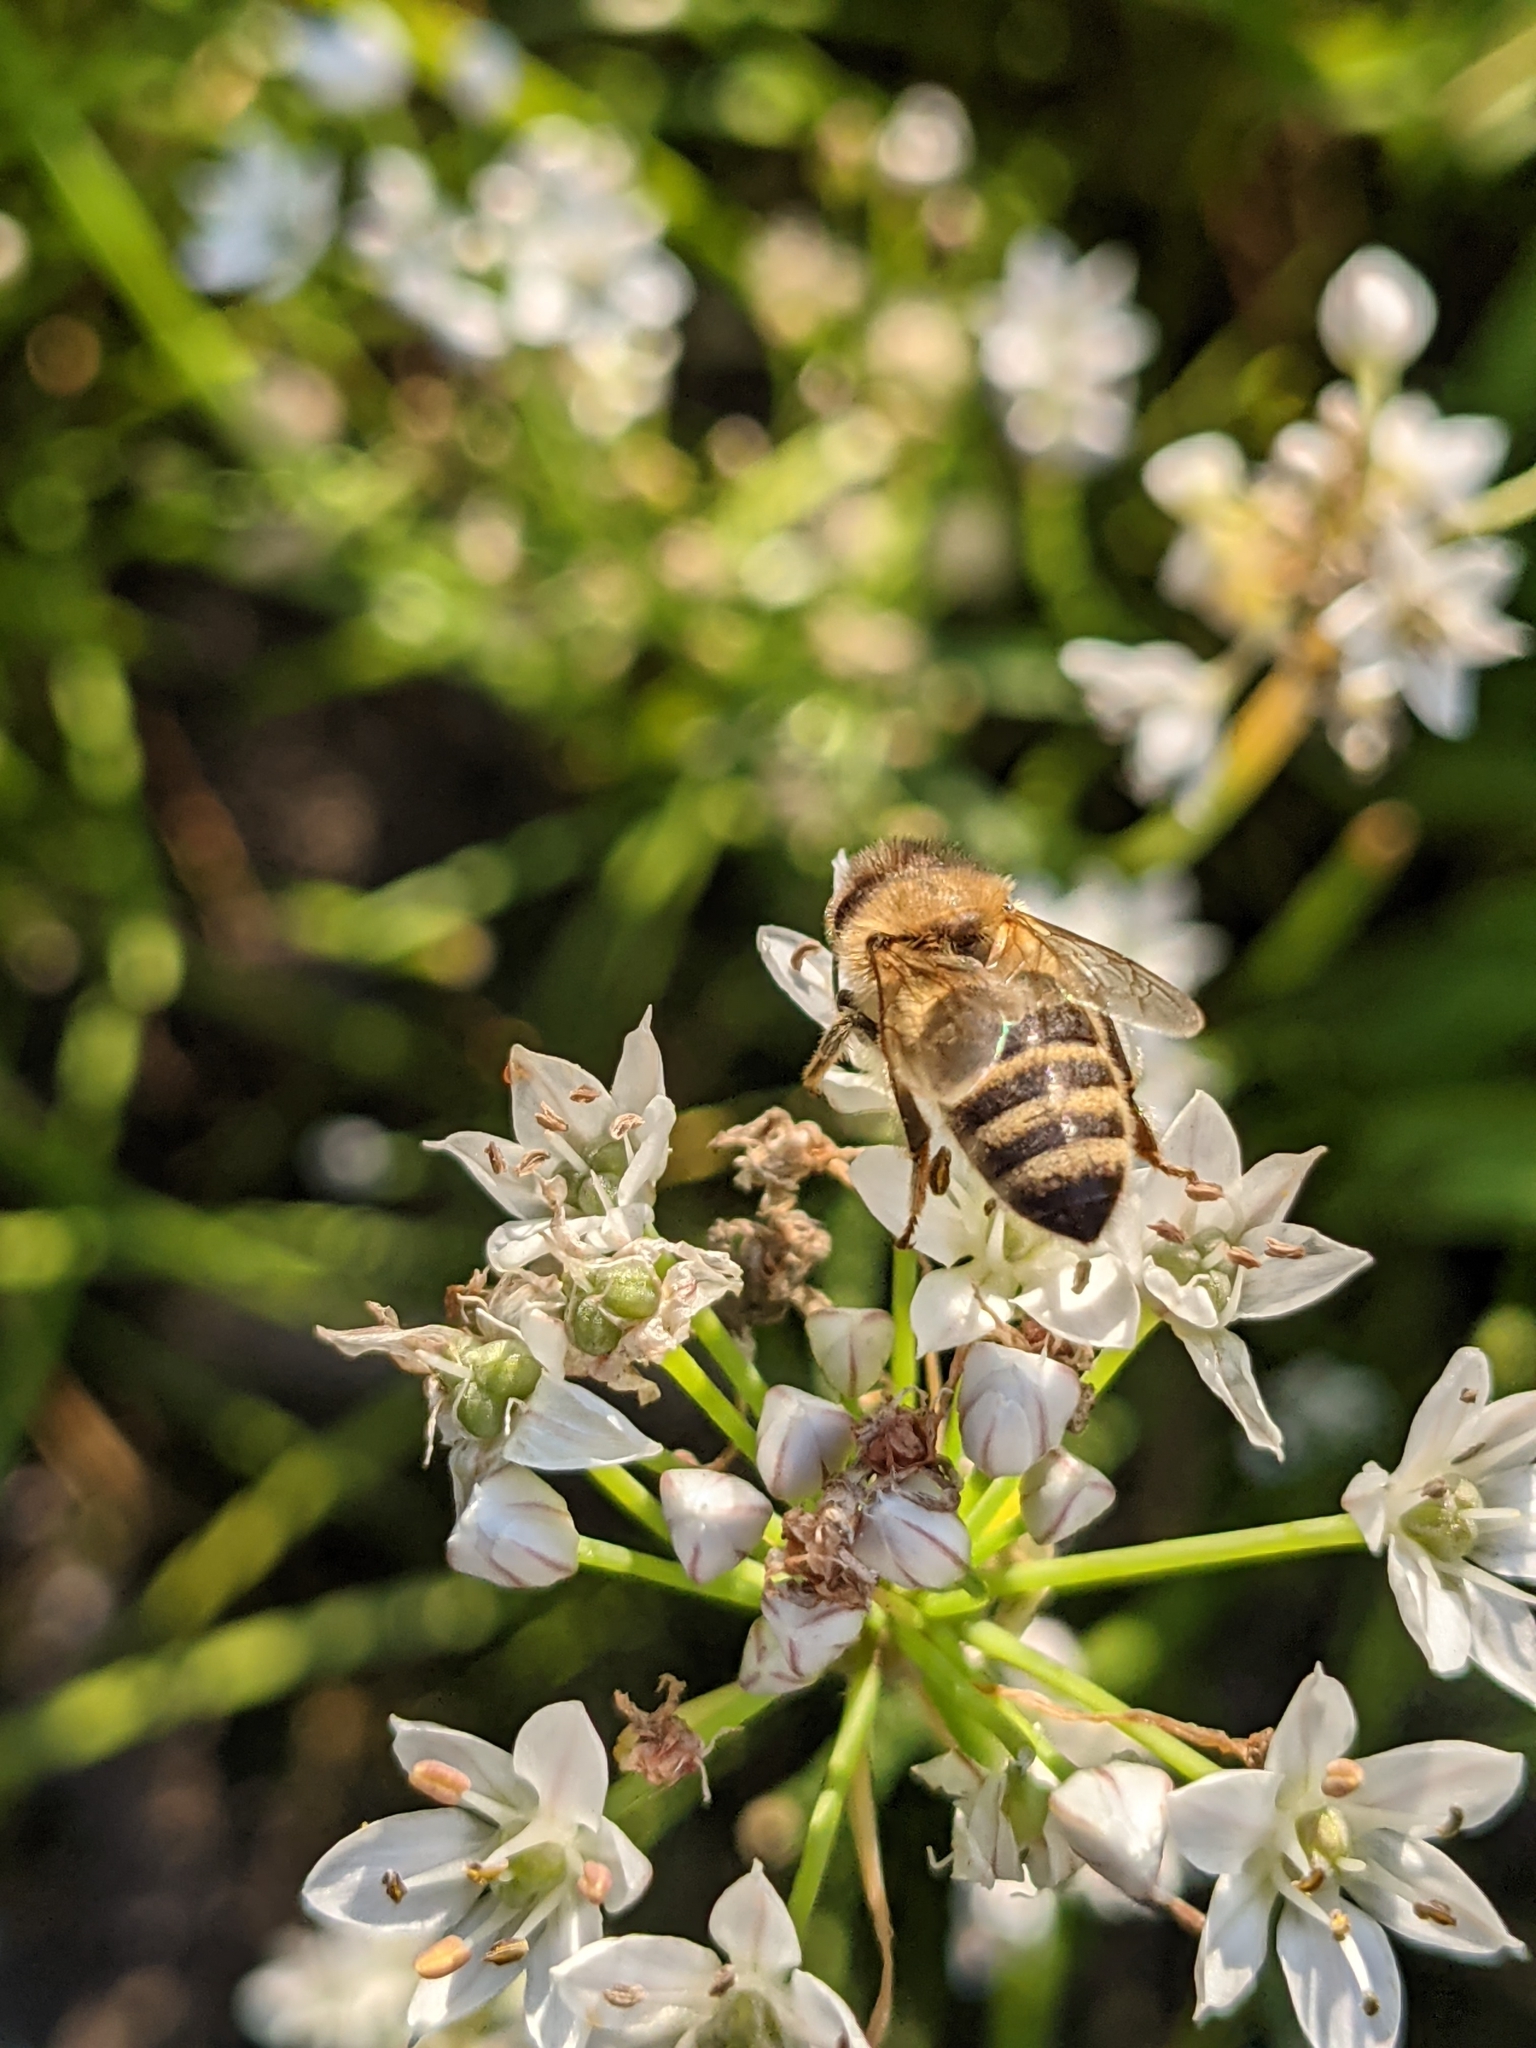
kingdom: Animalia
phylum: Arthropoda
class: Insecta
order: Hymenoptera
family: Apidae
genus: Apis
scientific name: Apis mellifera
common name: Honey bee
